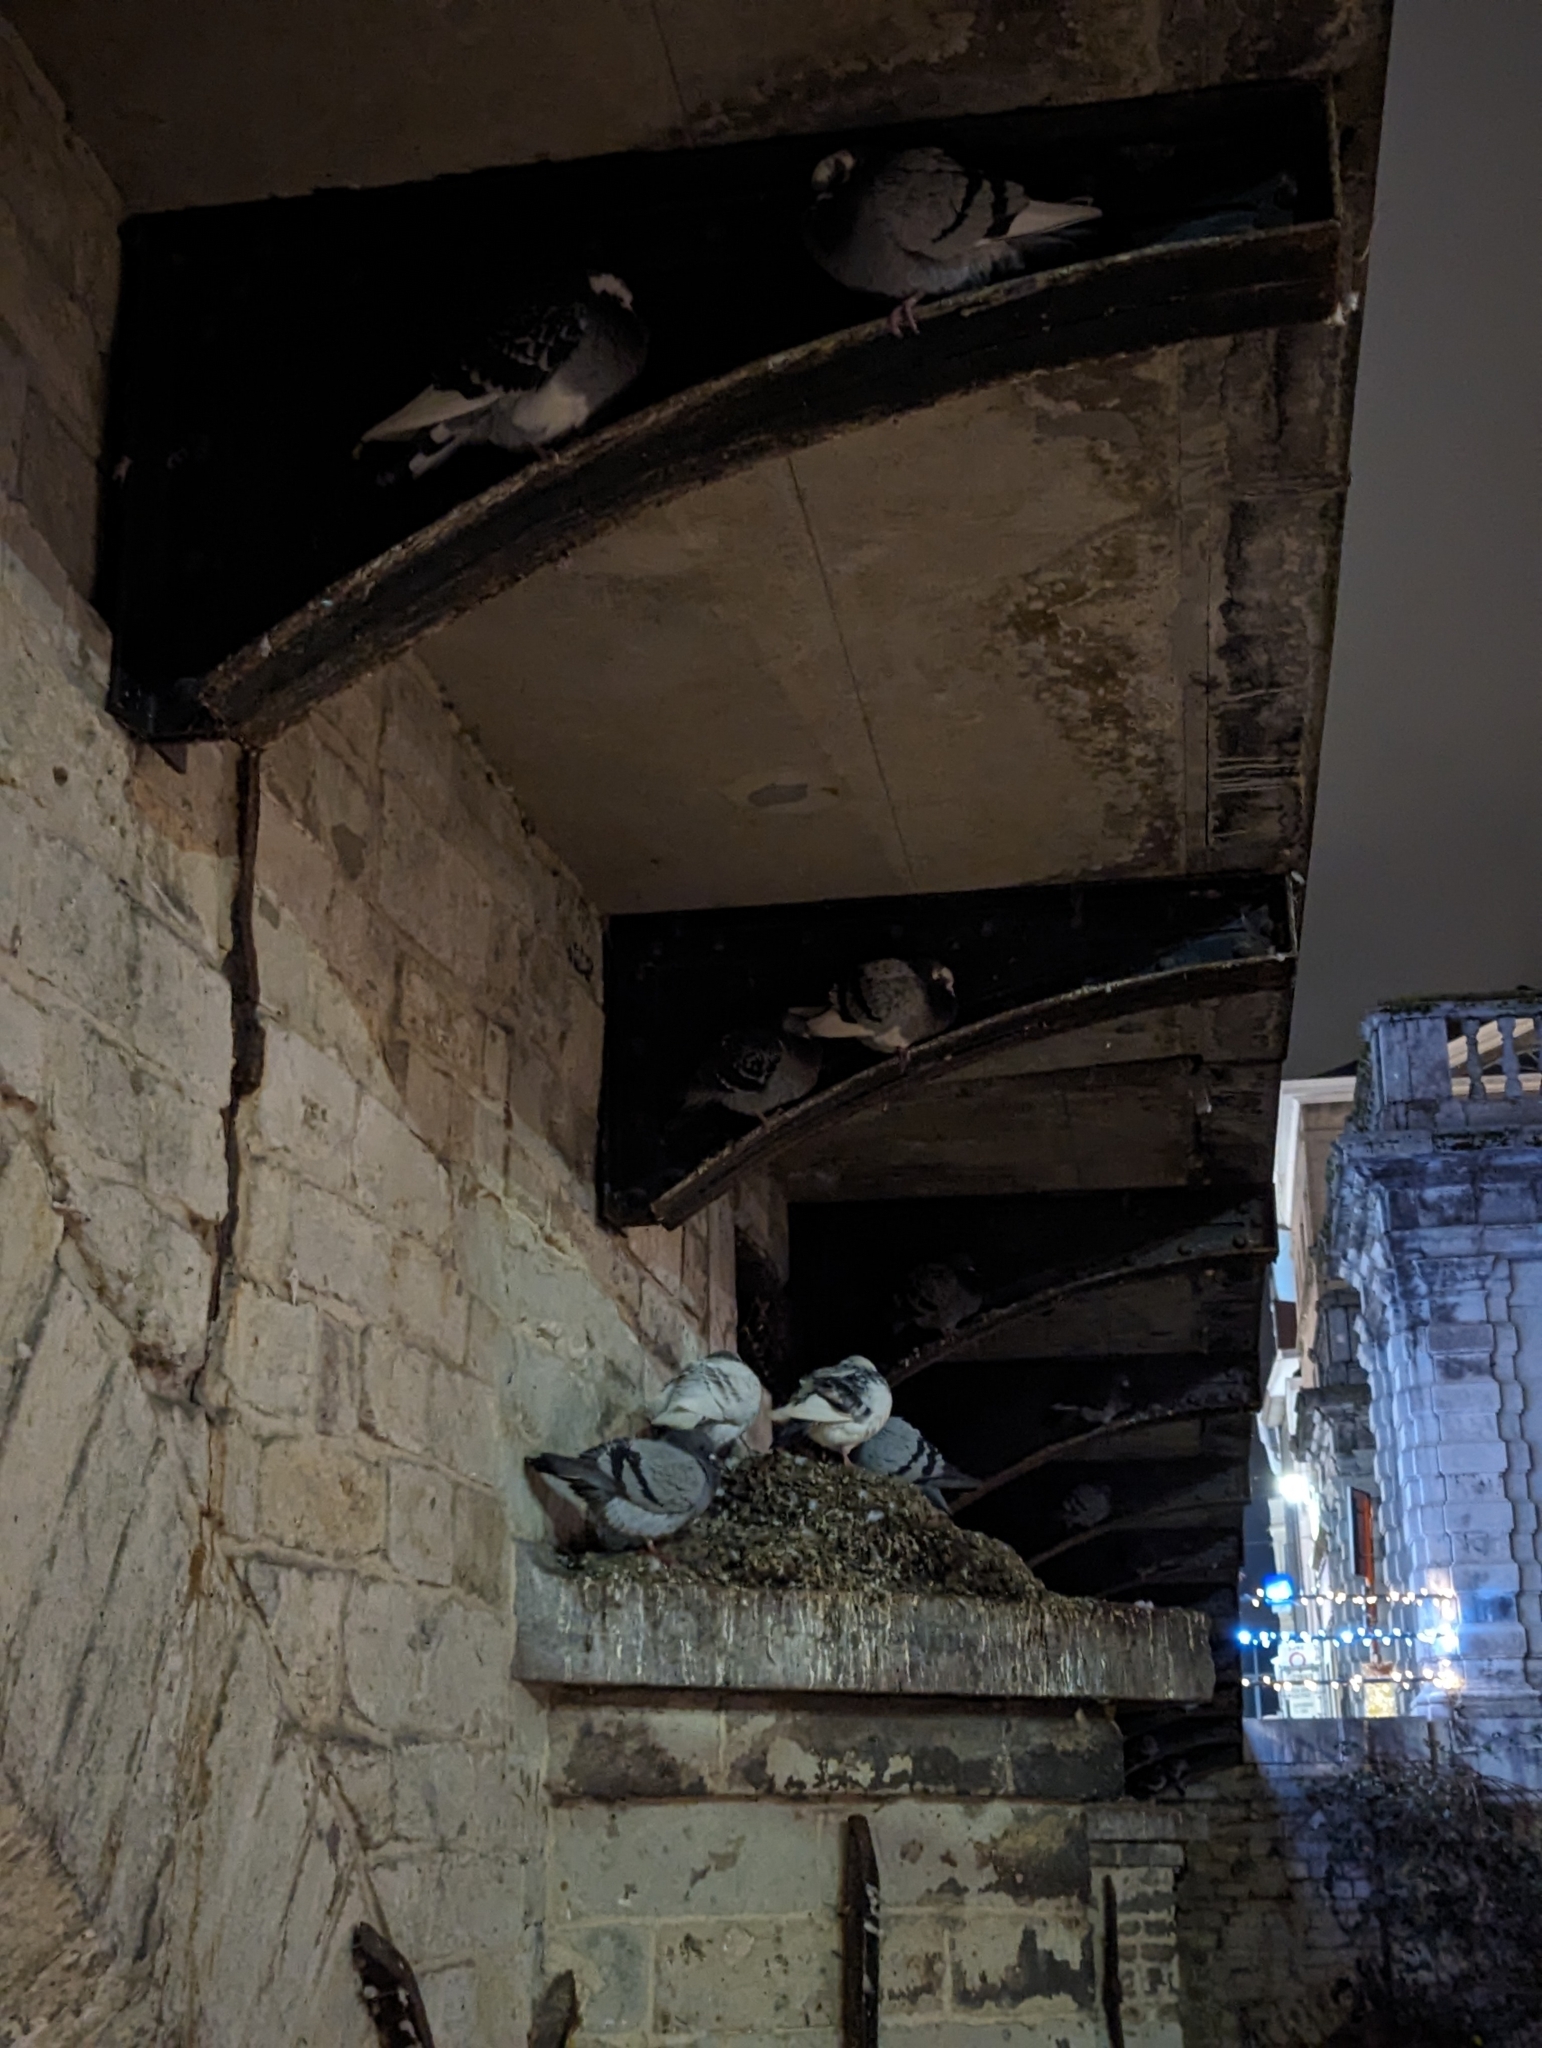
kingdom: Animalia
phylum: Chordata
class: Aves
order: Columbiformes
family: Columbidae
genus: Columba
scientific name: Columba livia
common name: Rock pigeon
